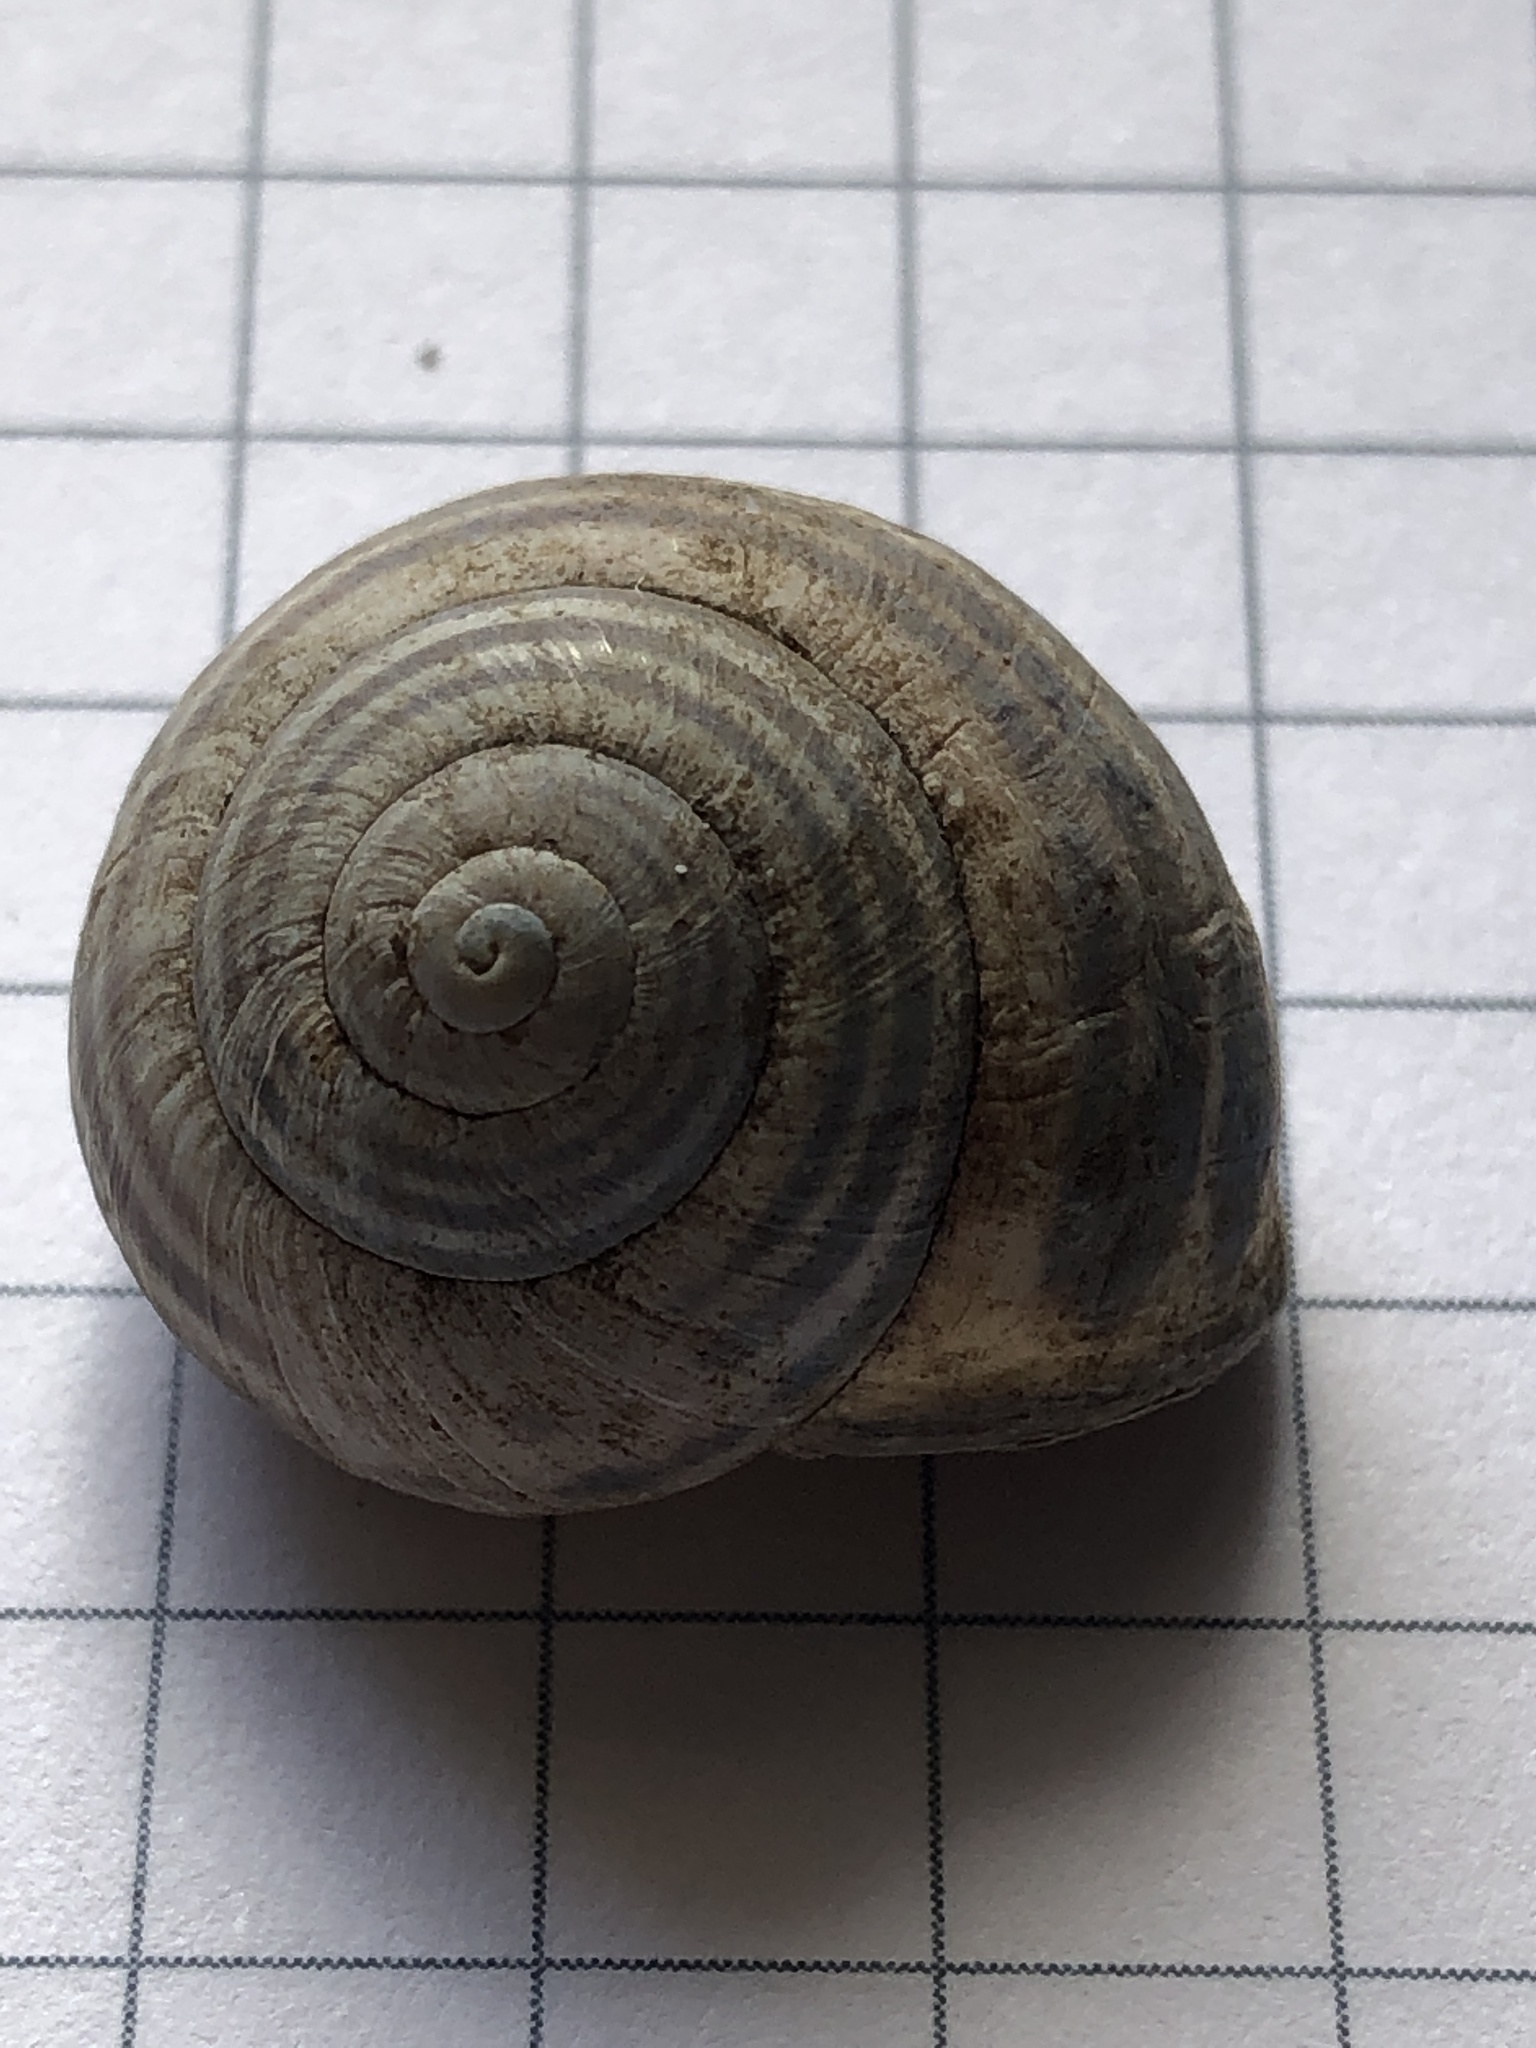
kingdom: Animalia
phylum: Mollusca
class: Gastropoda
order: Stylommatophora
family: Helicidae
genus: Cepaea
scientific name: Cepaea nemoralis
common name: Grovesnail
